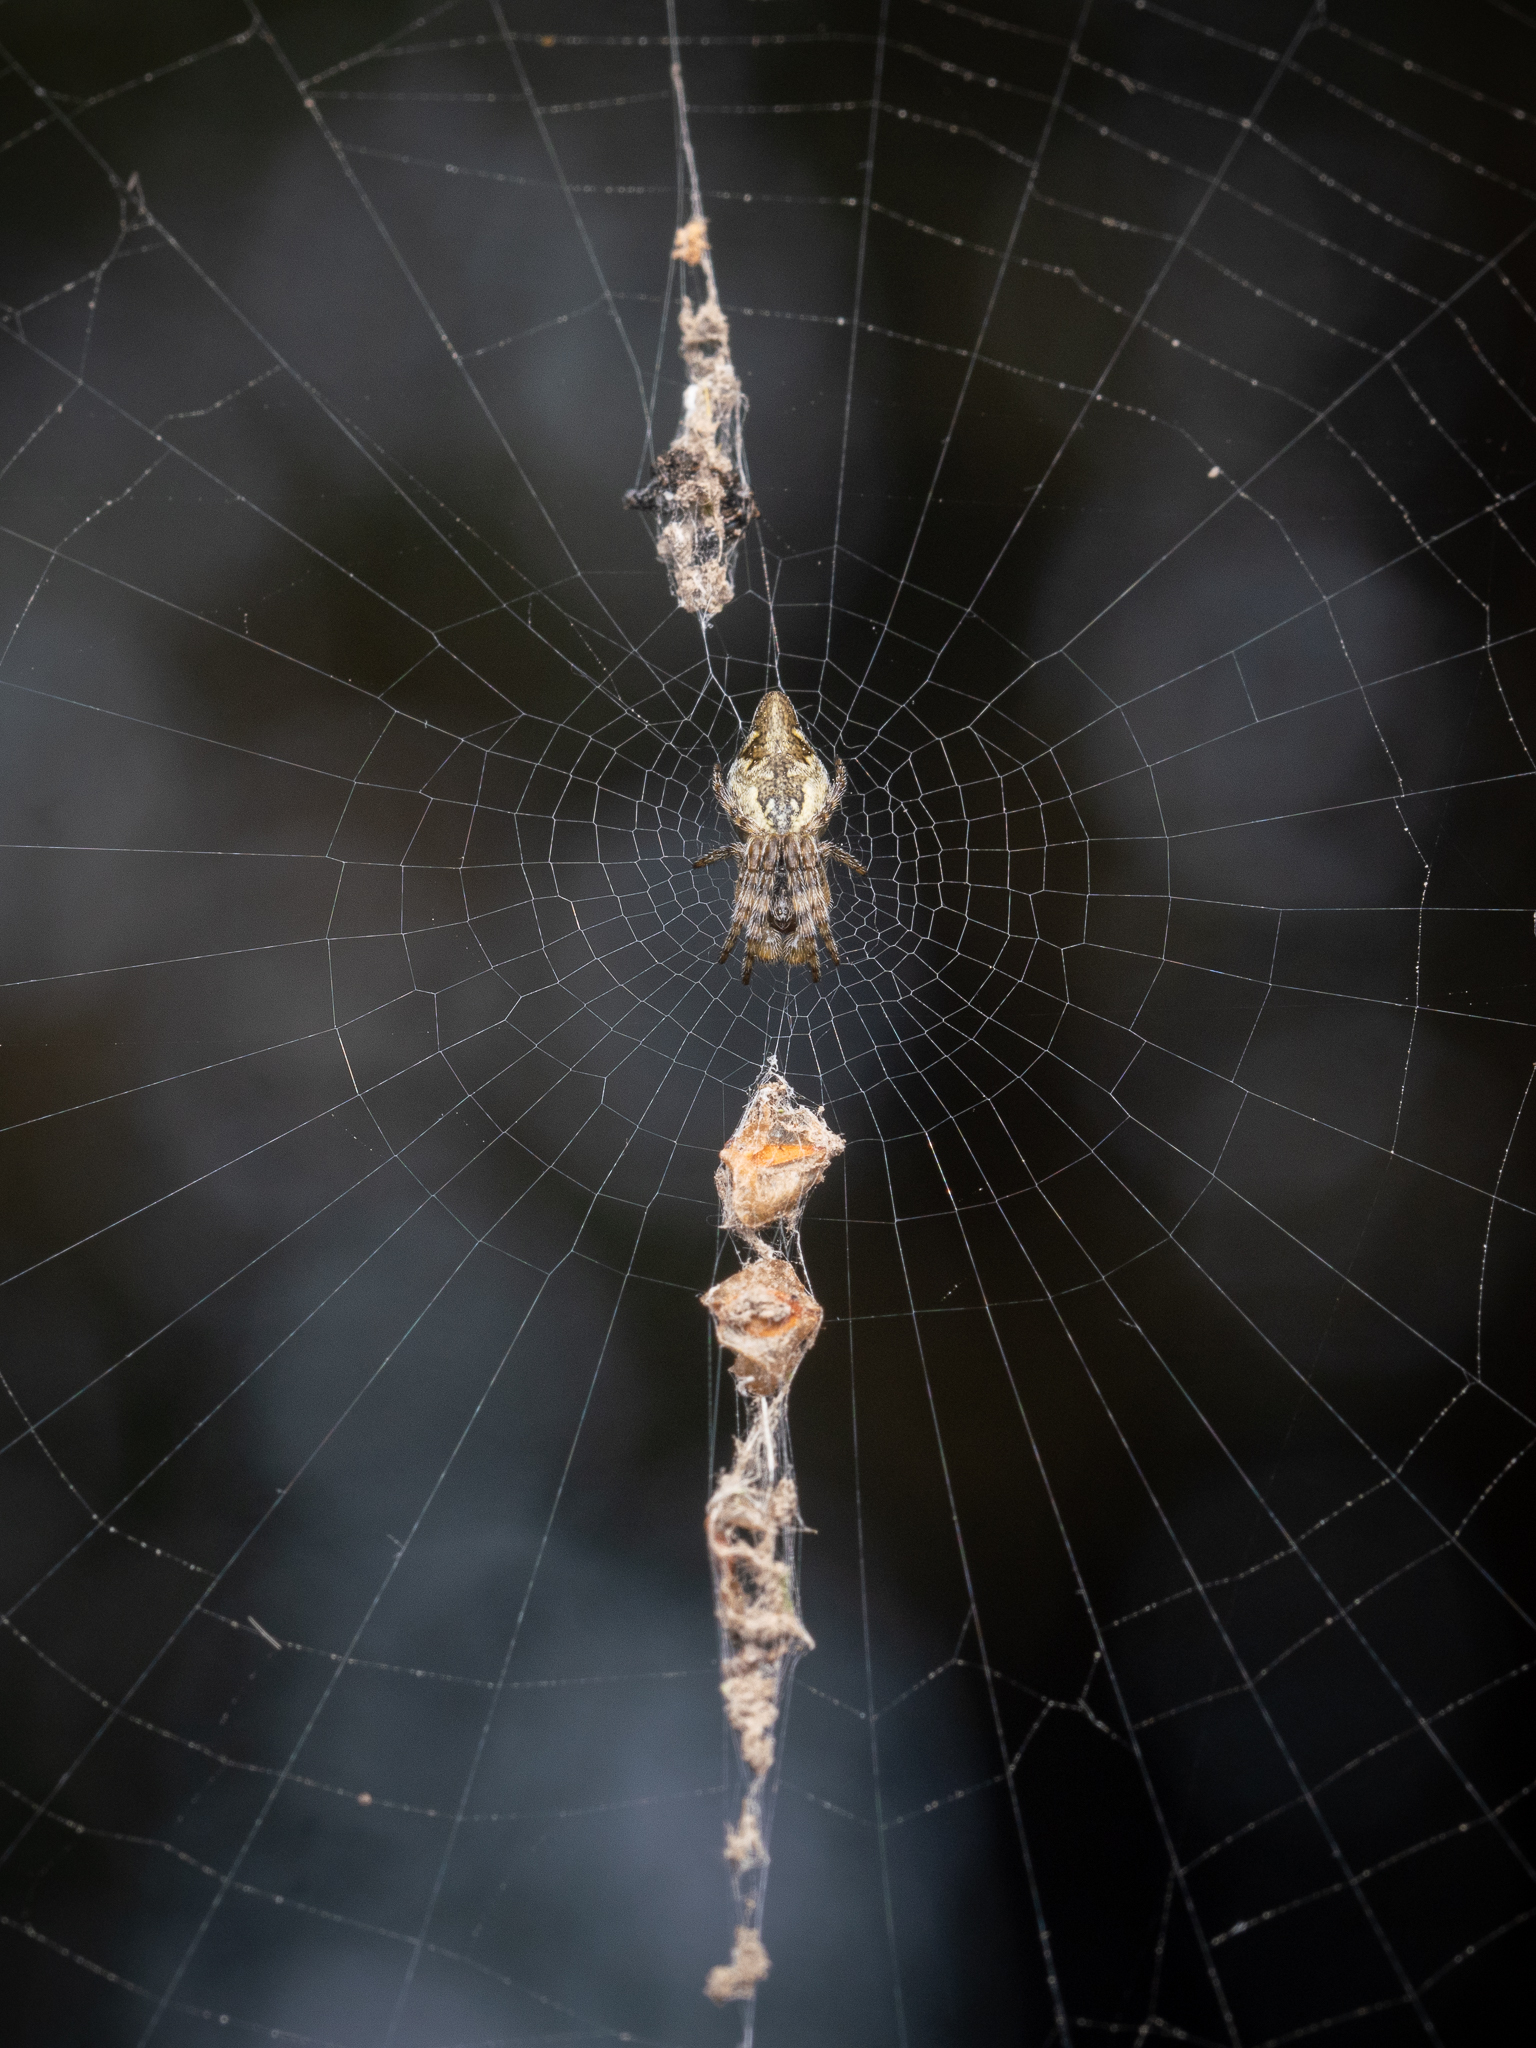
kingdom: Animalia
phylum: Arthropoda
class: Arachnida
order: Araneae
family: Araneidae
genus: Cyclosa
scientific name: Cyclosa conica
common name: Conical trashline orbweaver
